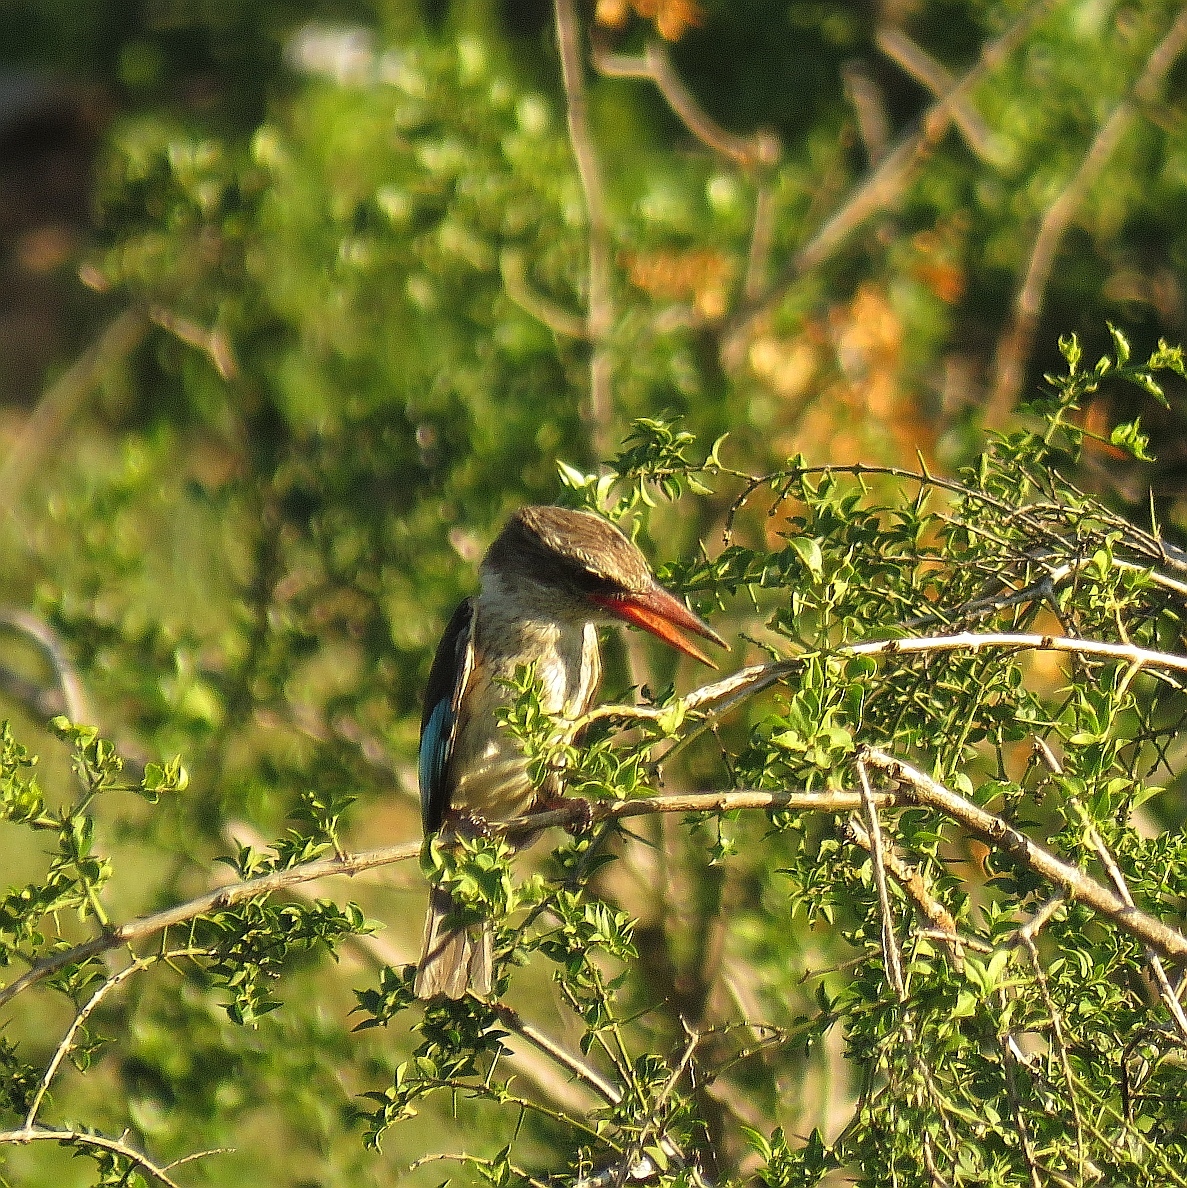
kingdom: Animalia
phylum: Chordata
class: Aves
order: Coraciiformes
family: Alcedinidae
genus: Halcyon
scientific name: Halcyon albiventris
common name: Brown-hooded kingfisher
